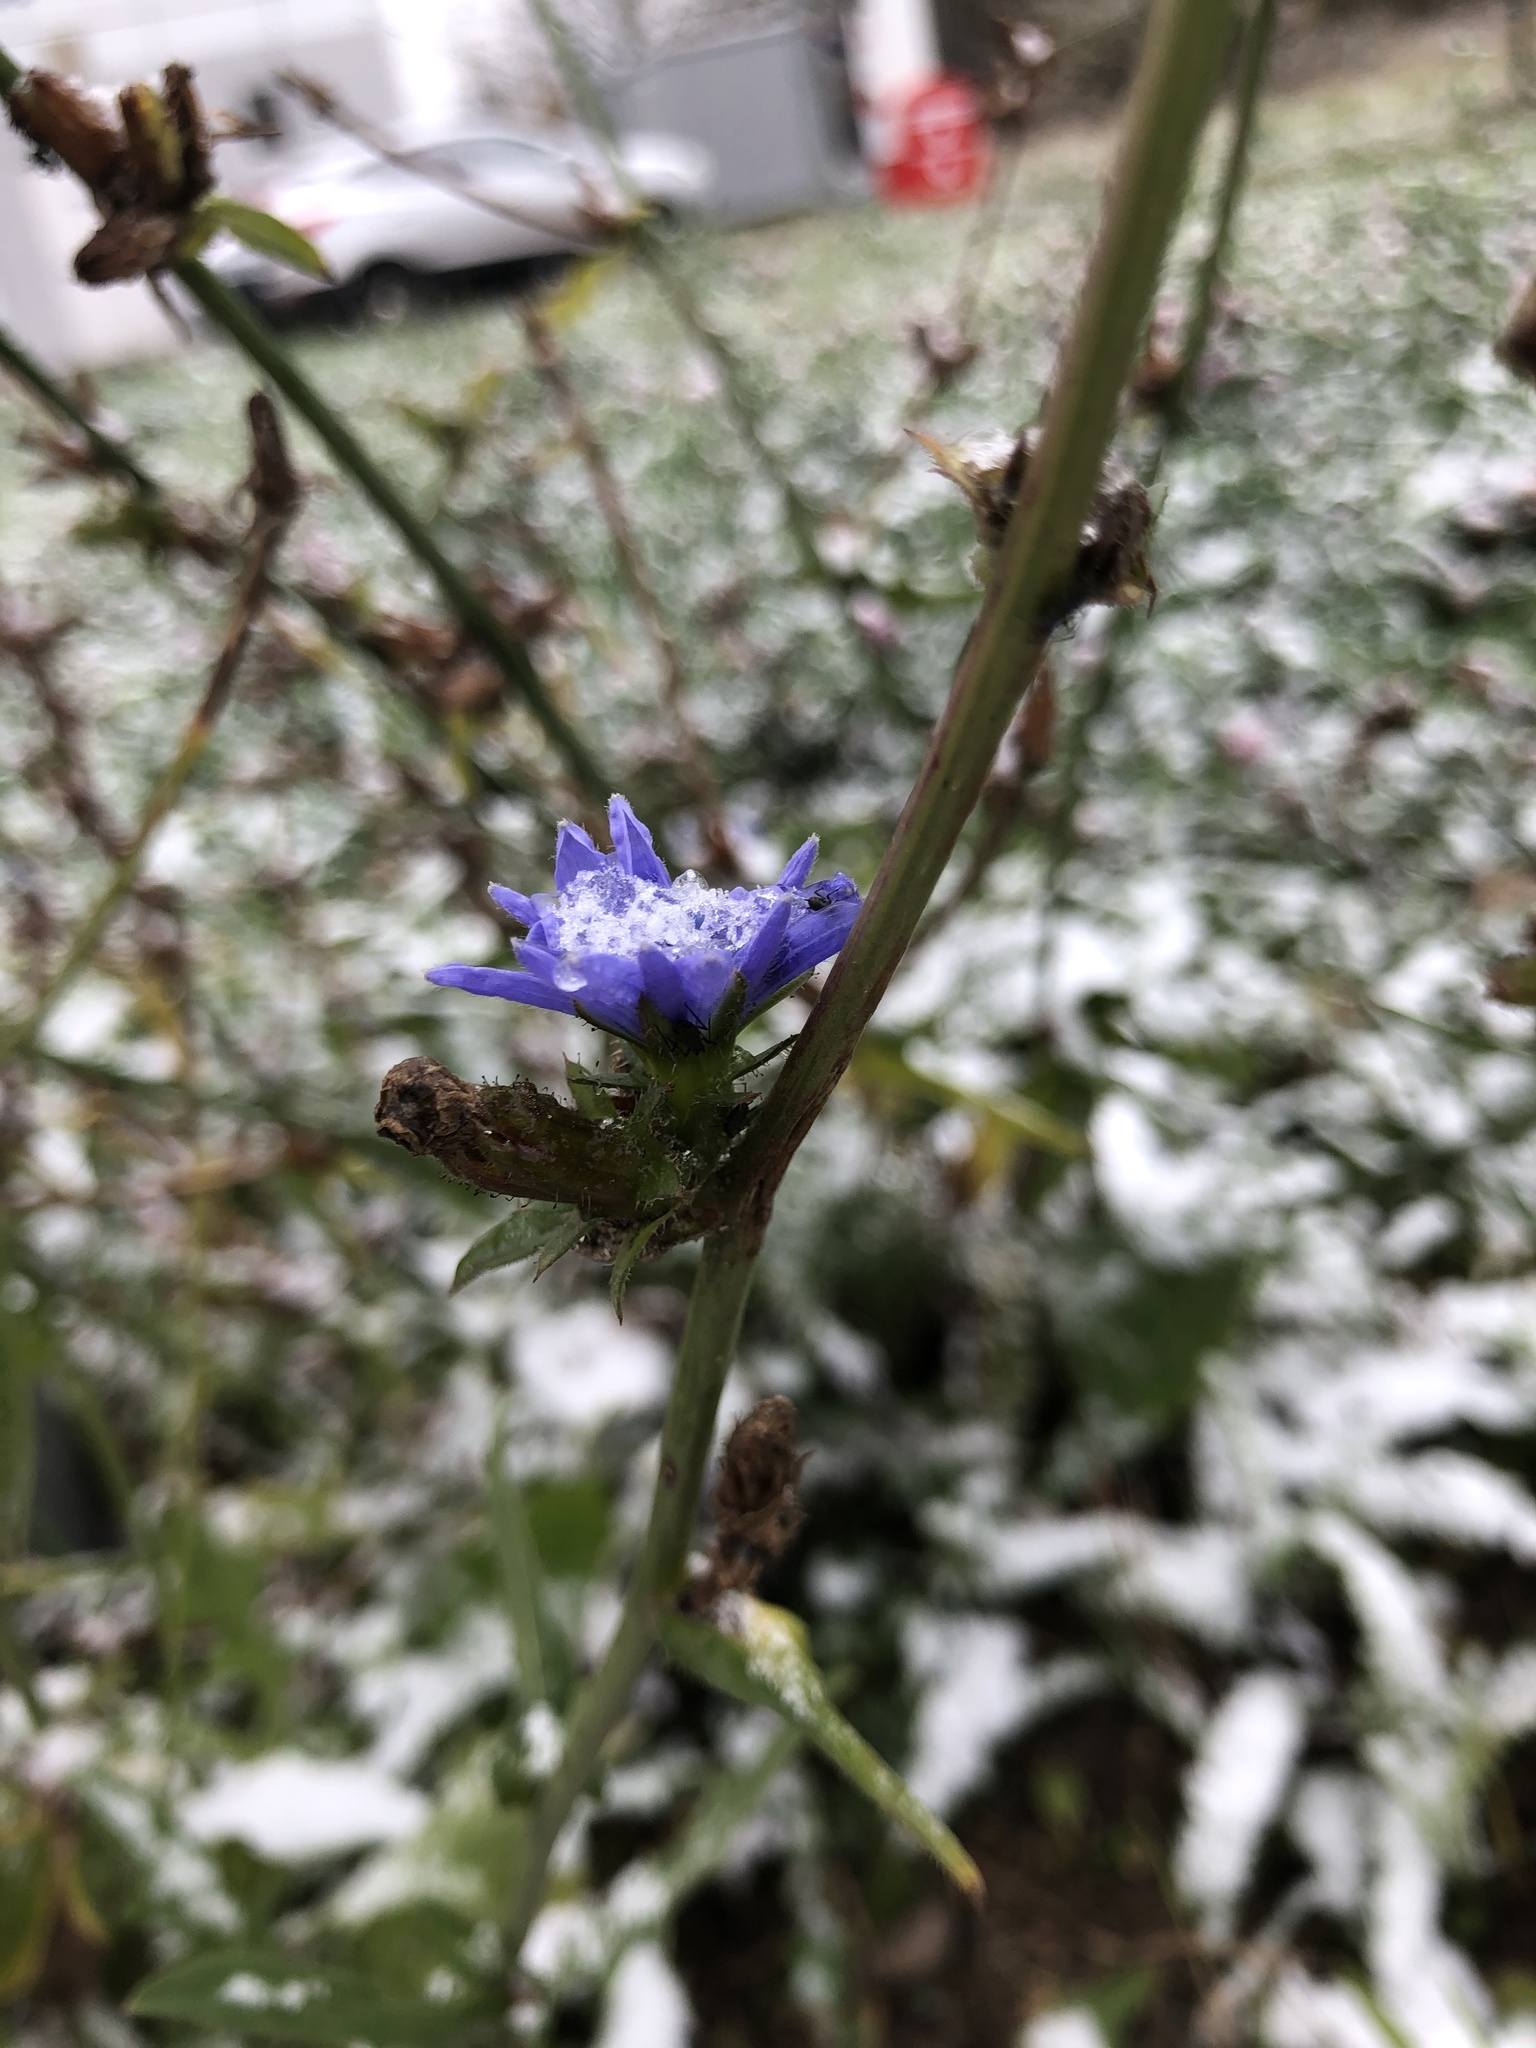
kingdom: Plantae
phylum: Tracheophyta
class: Magnoliopsida
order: Asterales
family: Asteraceae
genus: Cichorium
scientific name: Cichorium intybus
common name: Chicory
